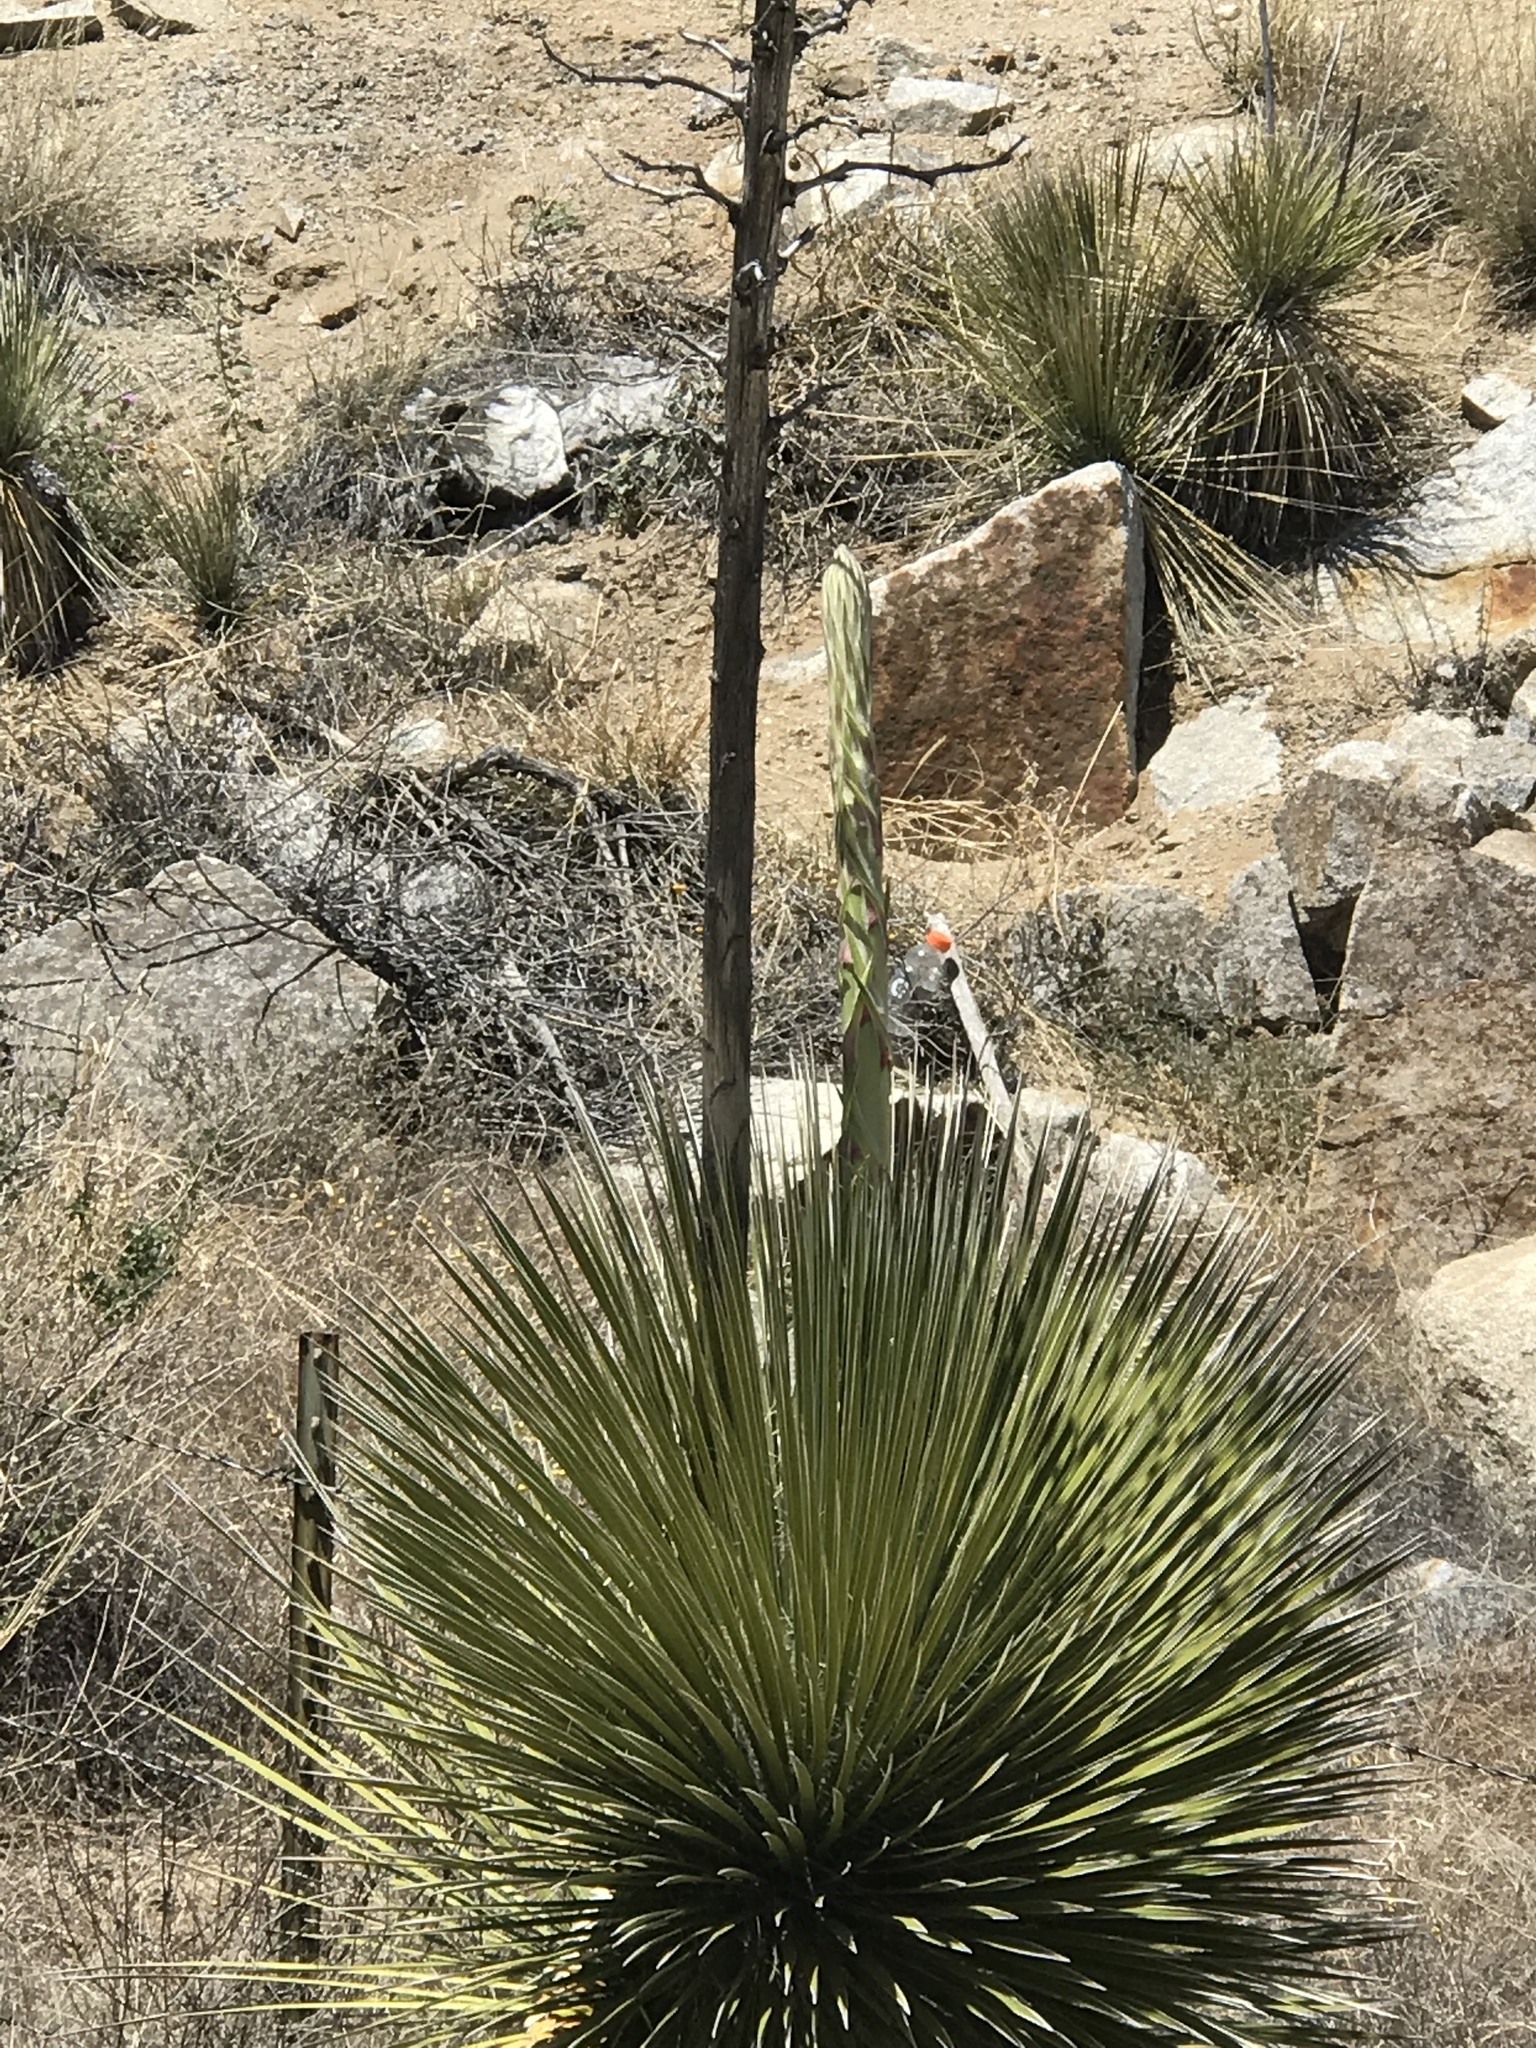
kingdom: Plantae
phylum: Tracheophyta
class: Liliopsida
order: Asparagales
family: Asparagaceae
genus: Yucca
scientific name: Yucca elata
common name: Palmella
